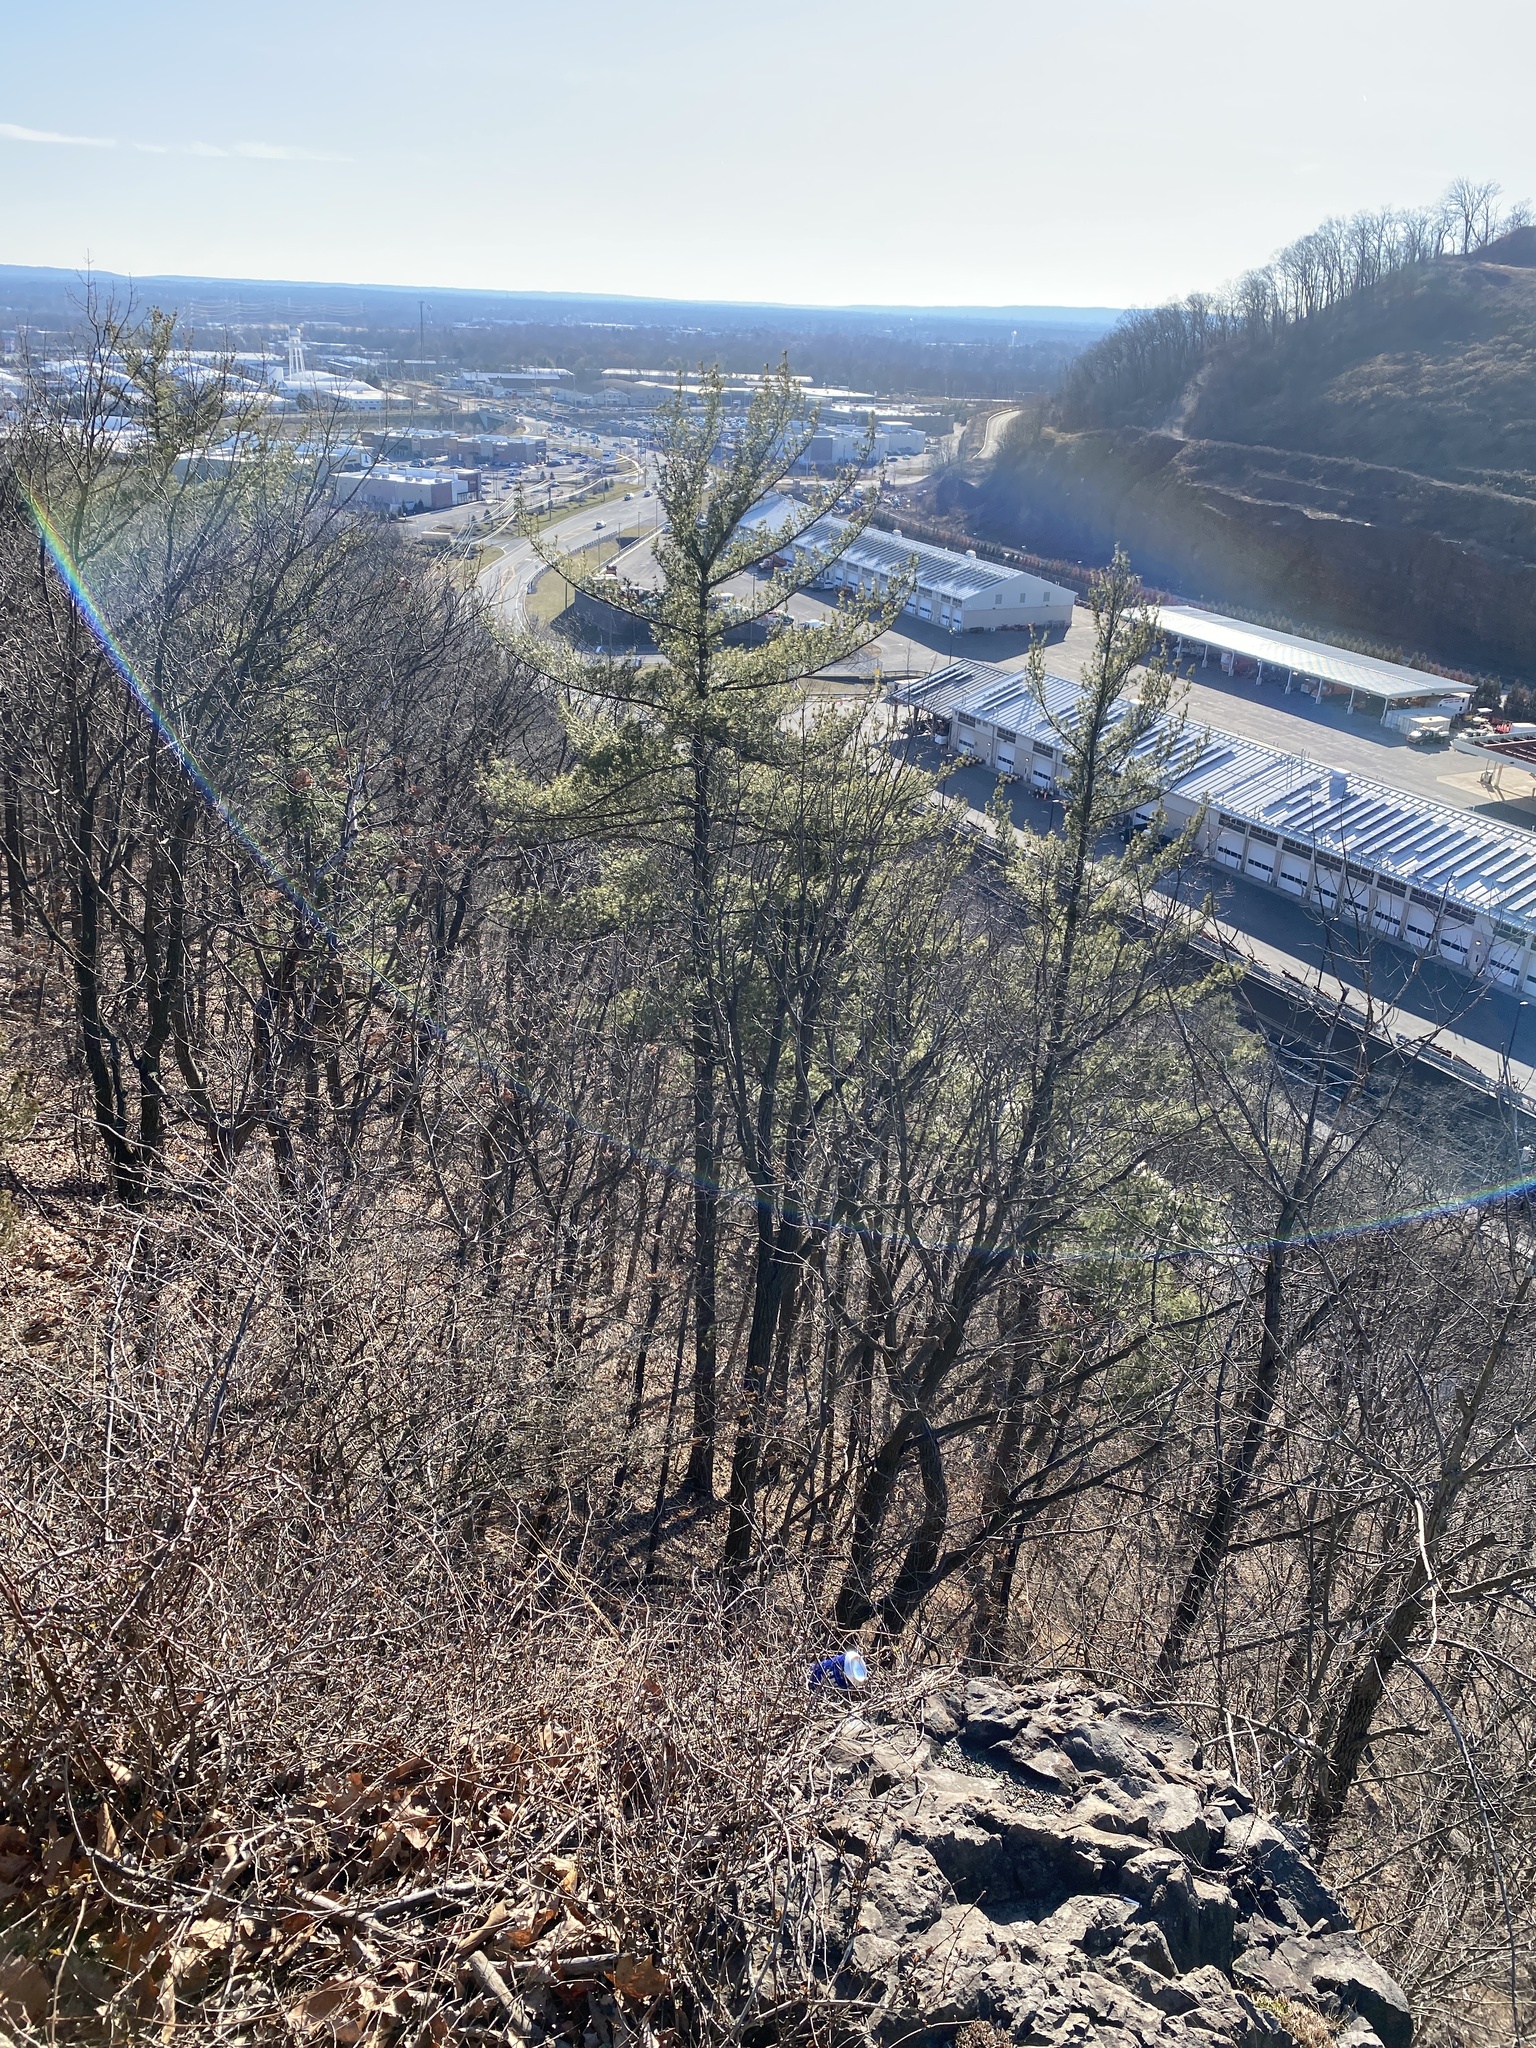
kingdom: Plantae
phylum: Tracheophyta
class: Pinopsida
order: Pinales
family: Pinaceae
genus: Pinus
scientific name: Pinus strobus
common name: Weymouth pine
